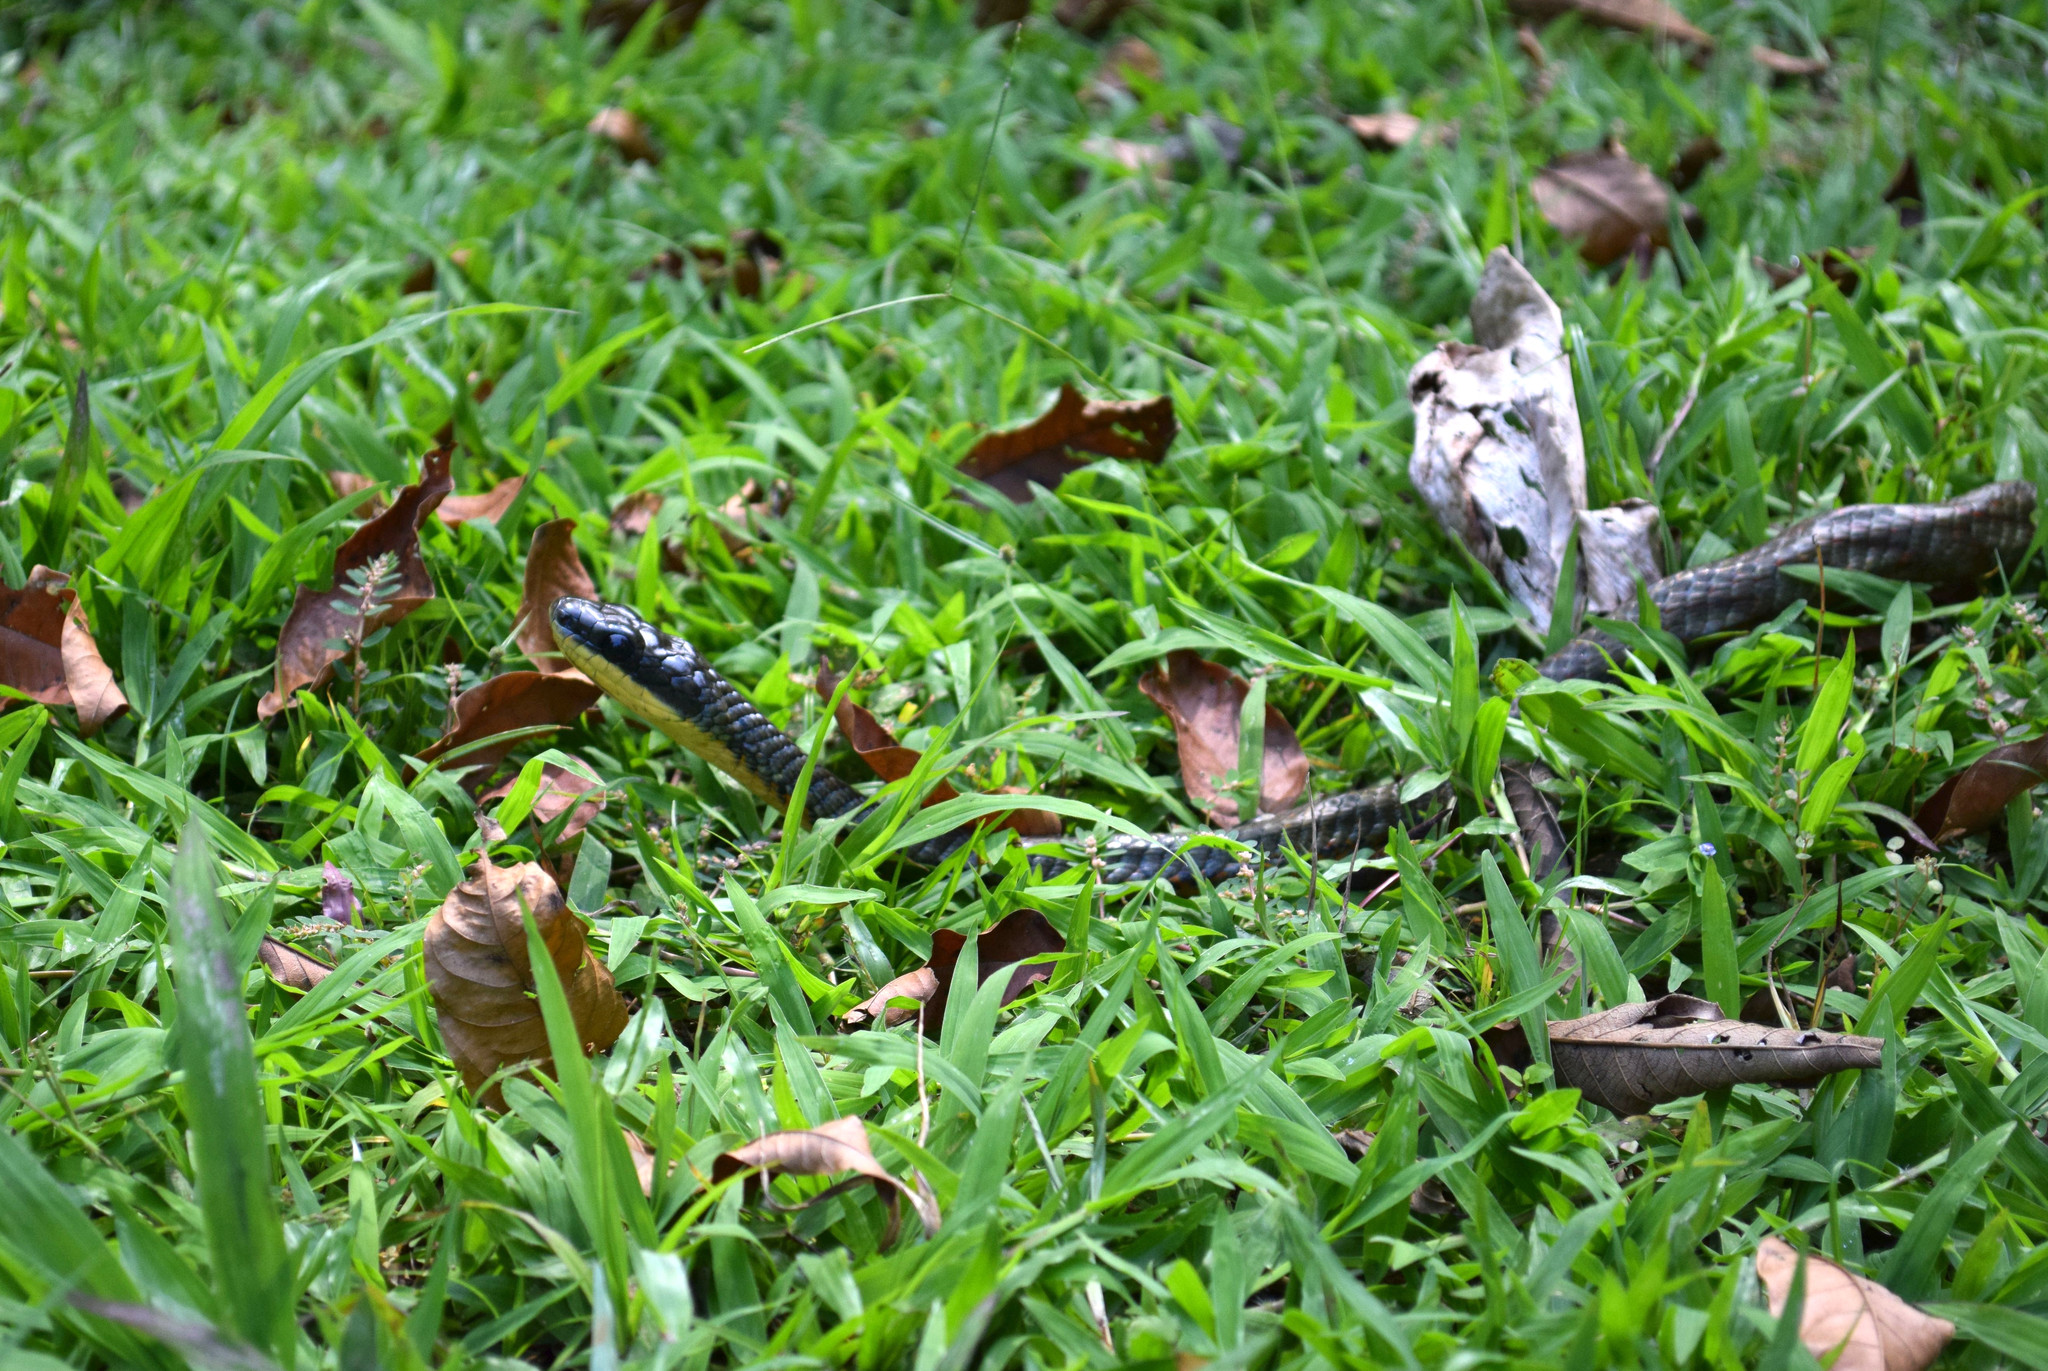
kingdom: Animalia
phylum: Chordata
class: Squamata
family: Colubridae
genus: Phrynonax
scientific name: Phrynonax poecilonotus
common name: Puffing snake
